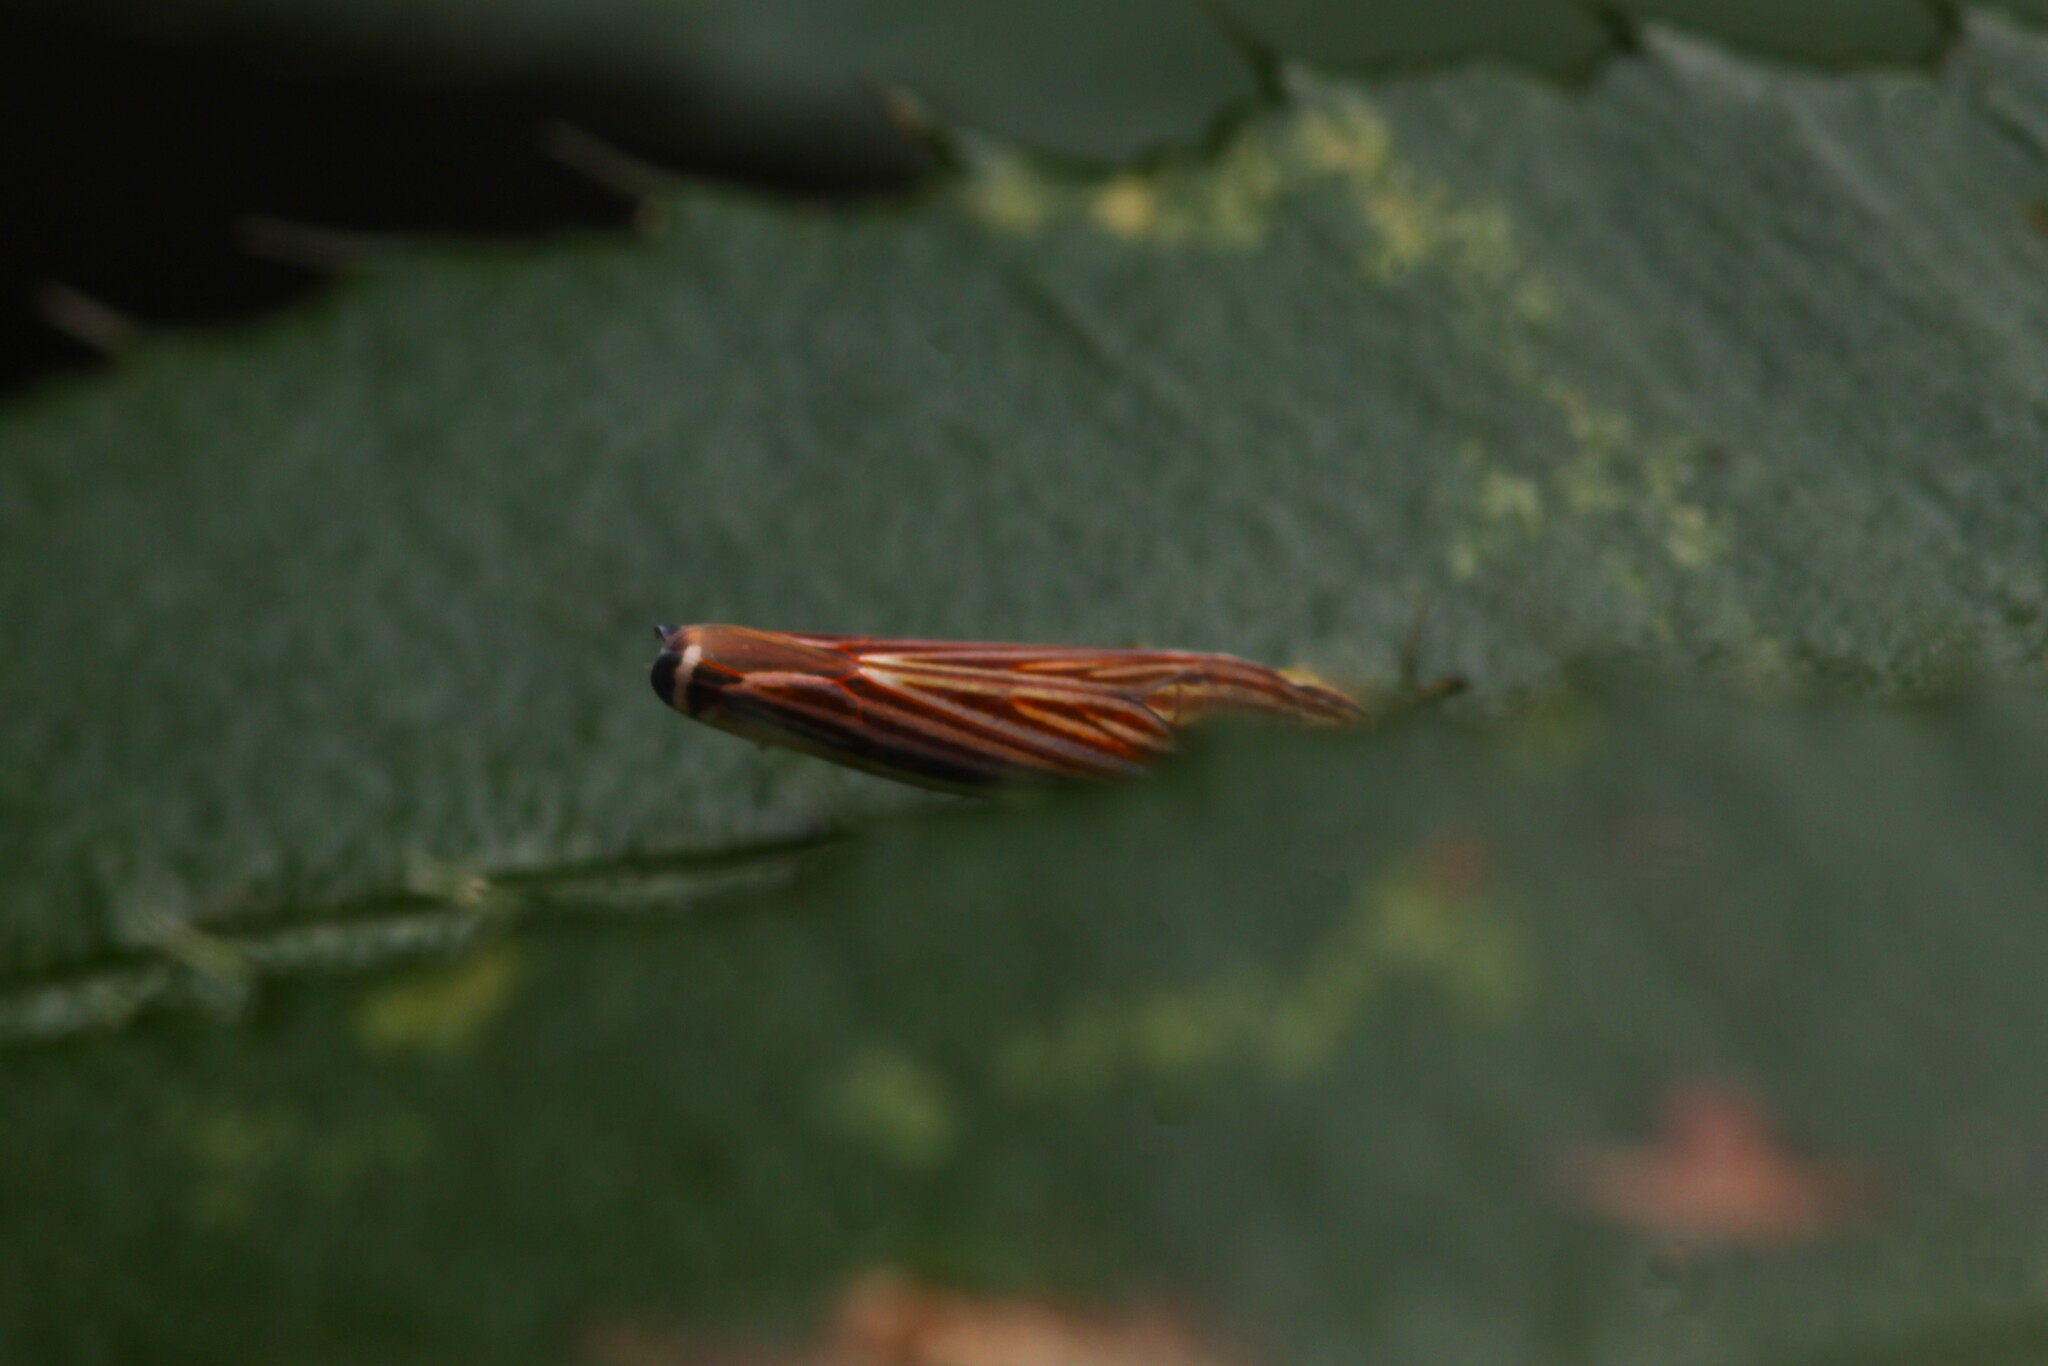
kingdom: Animalia
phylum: Arthropoda
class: Insecta
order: Hemiptera
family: Cicadellidae
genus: Sibovia
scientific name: Sibovia occatoria
